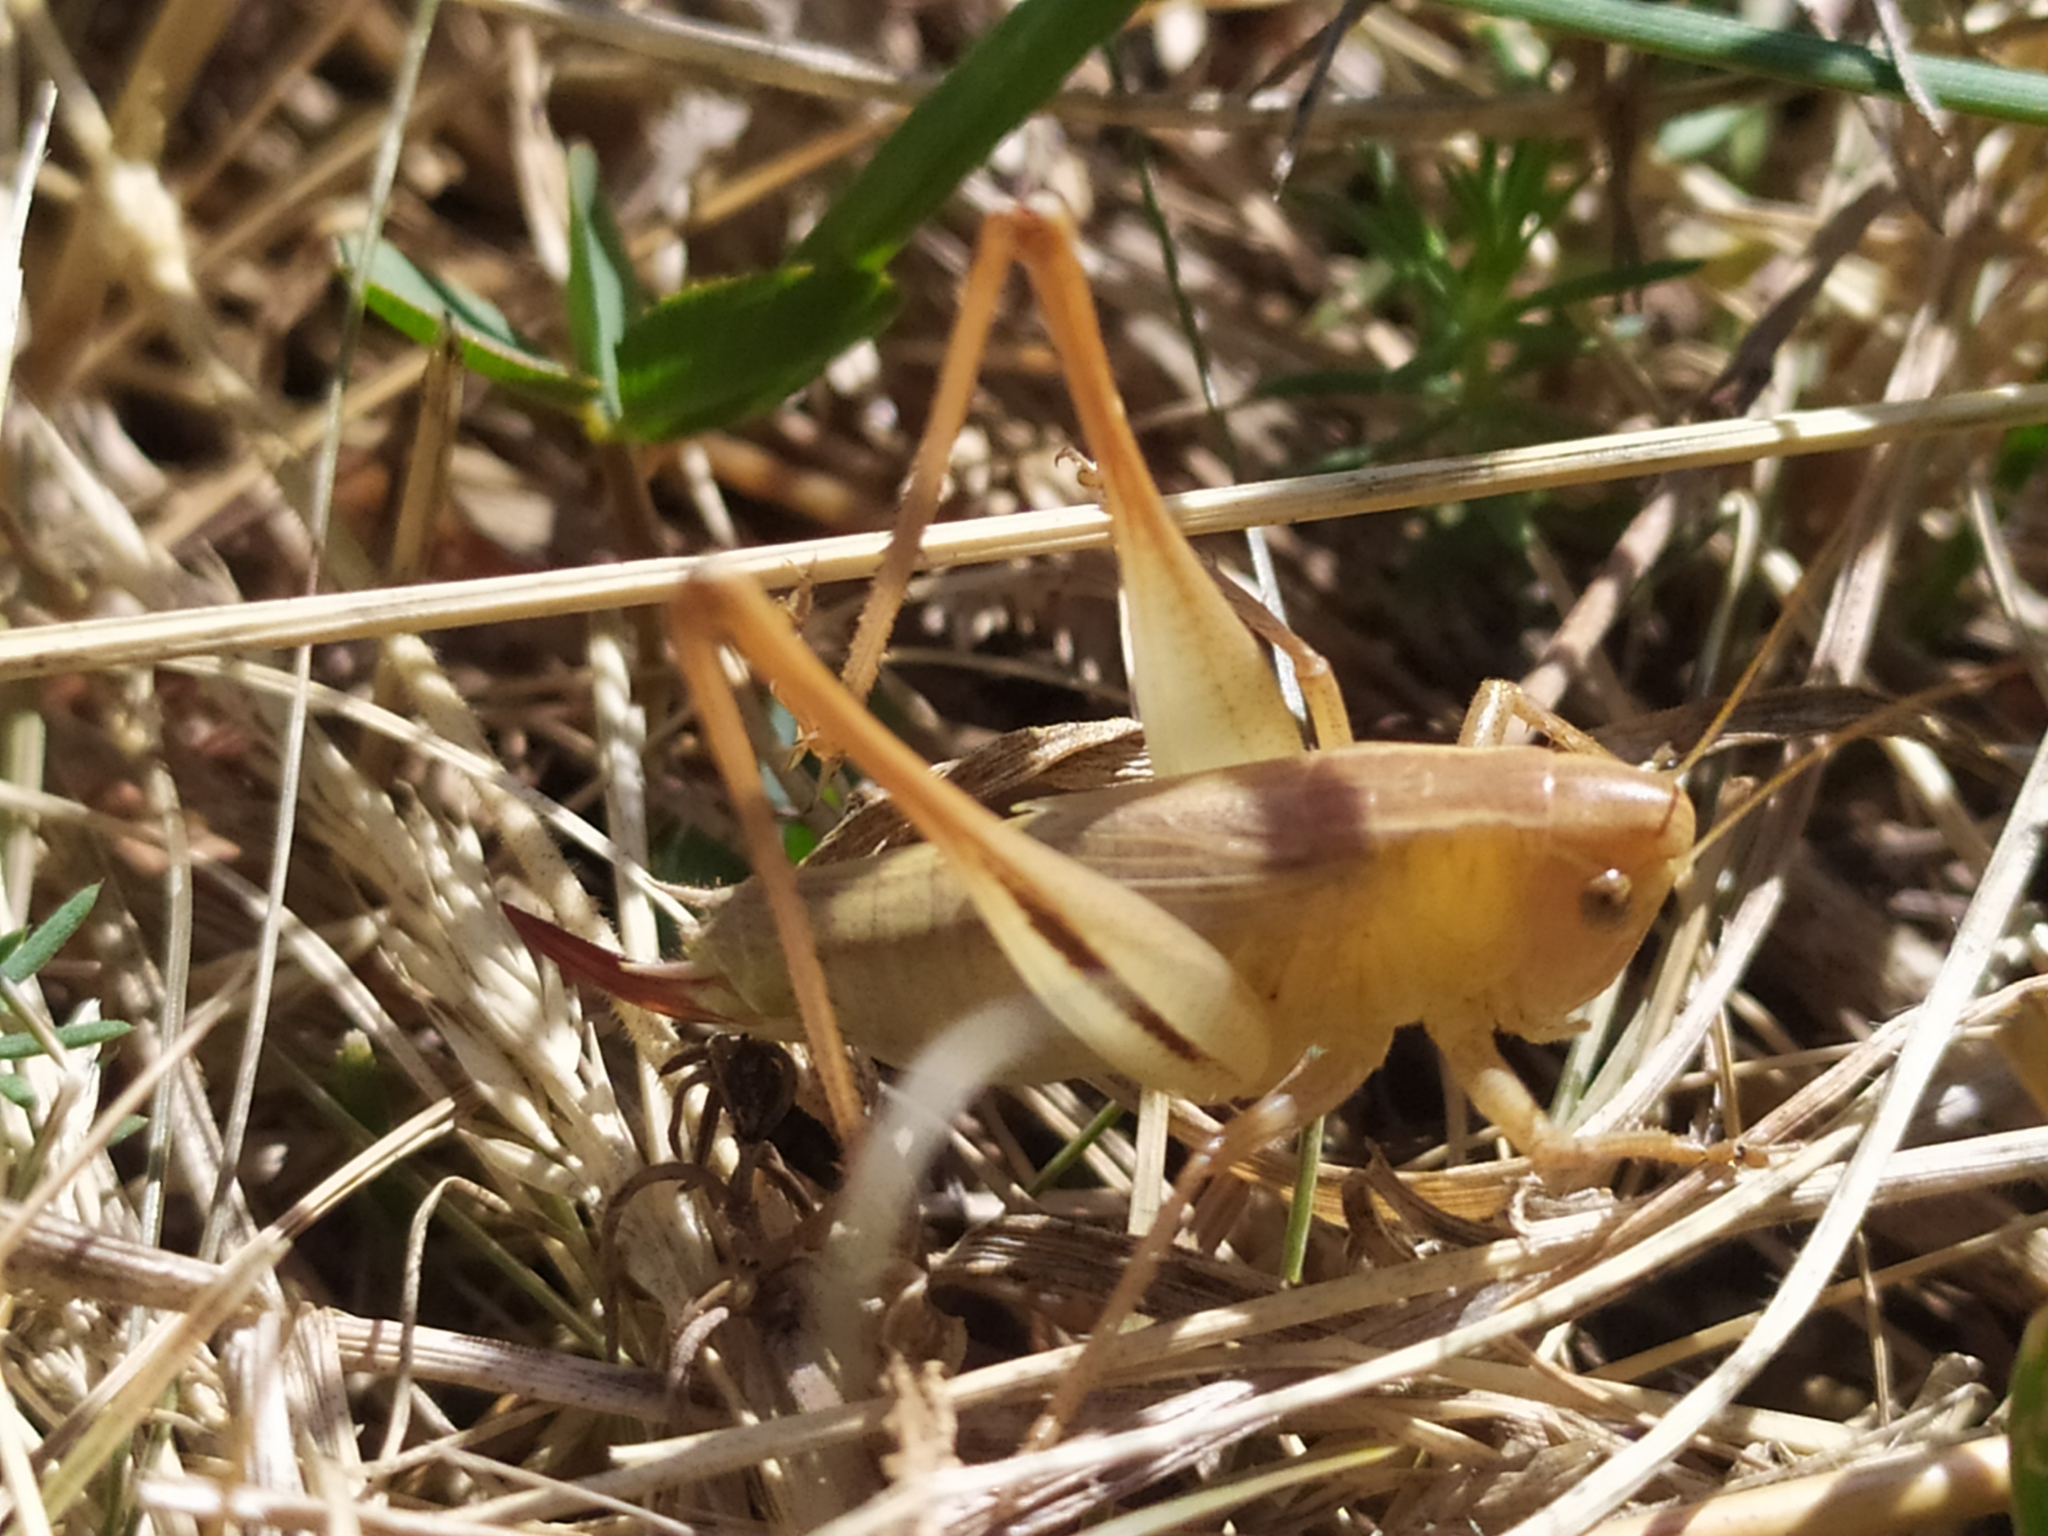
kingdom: Animalia
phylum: Arthropoda
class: Insecta
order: Orthoptera
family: Tettigoniidae
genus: Bicolorana
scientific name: Bicolorana bicolor
